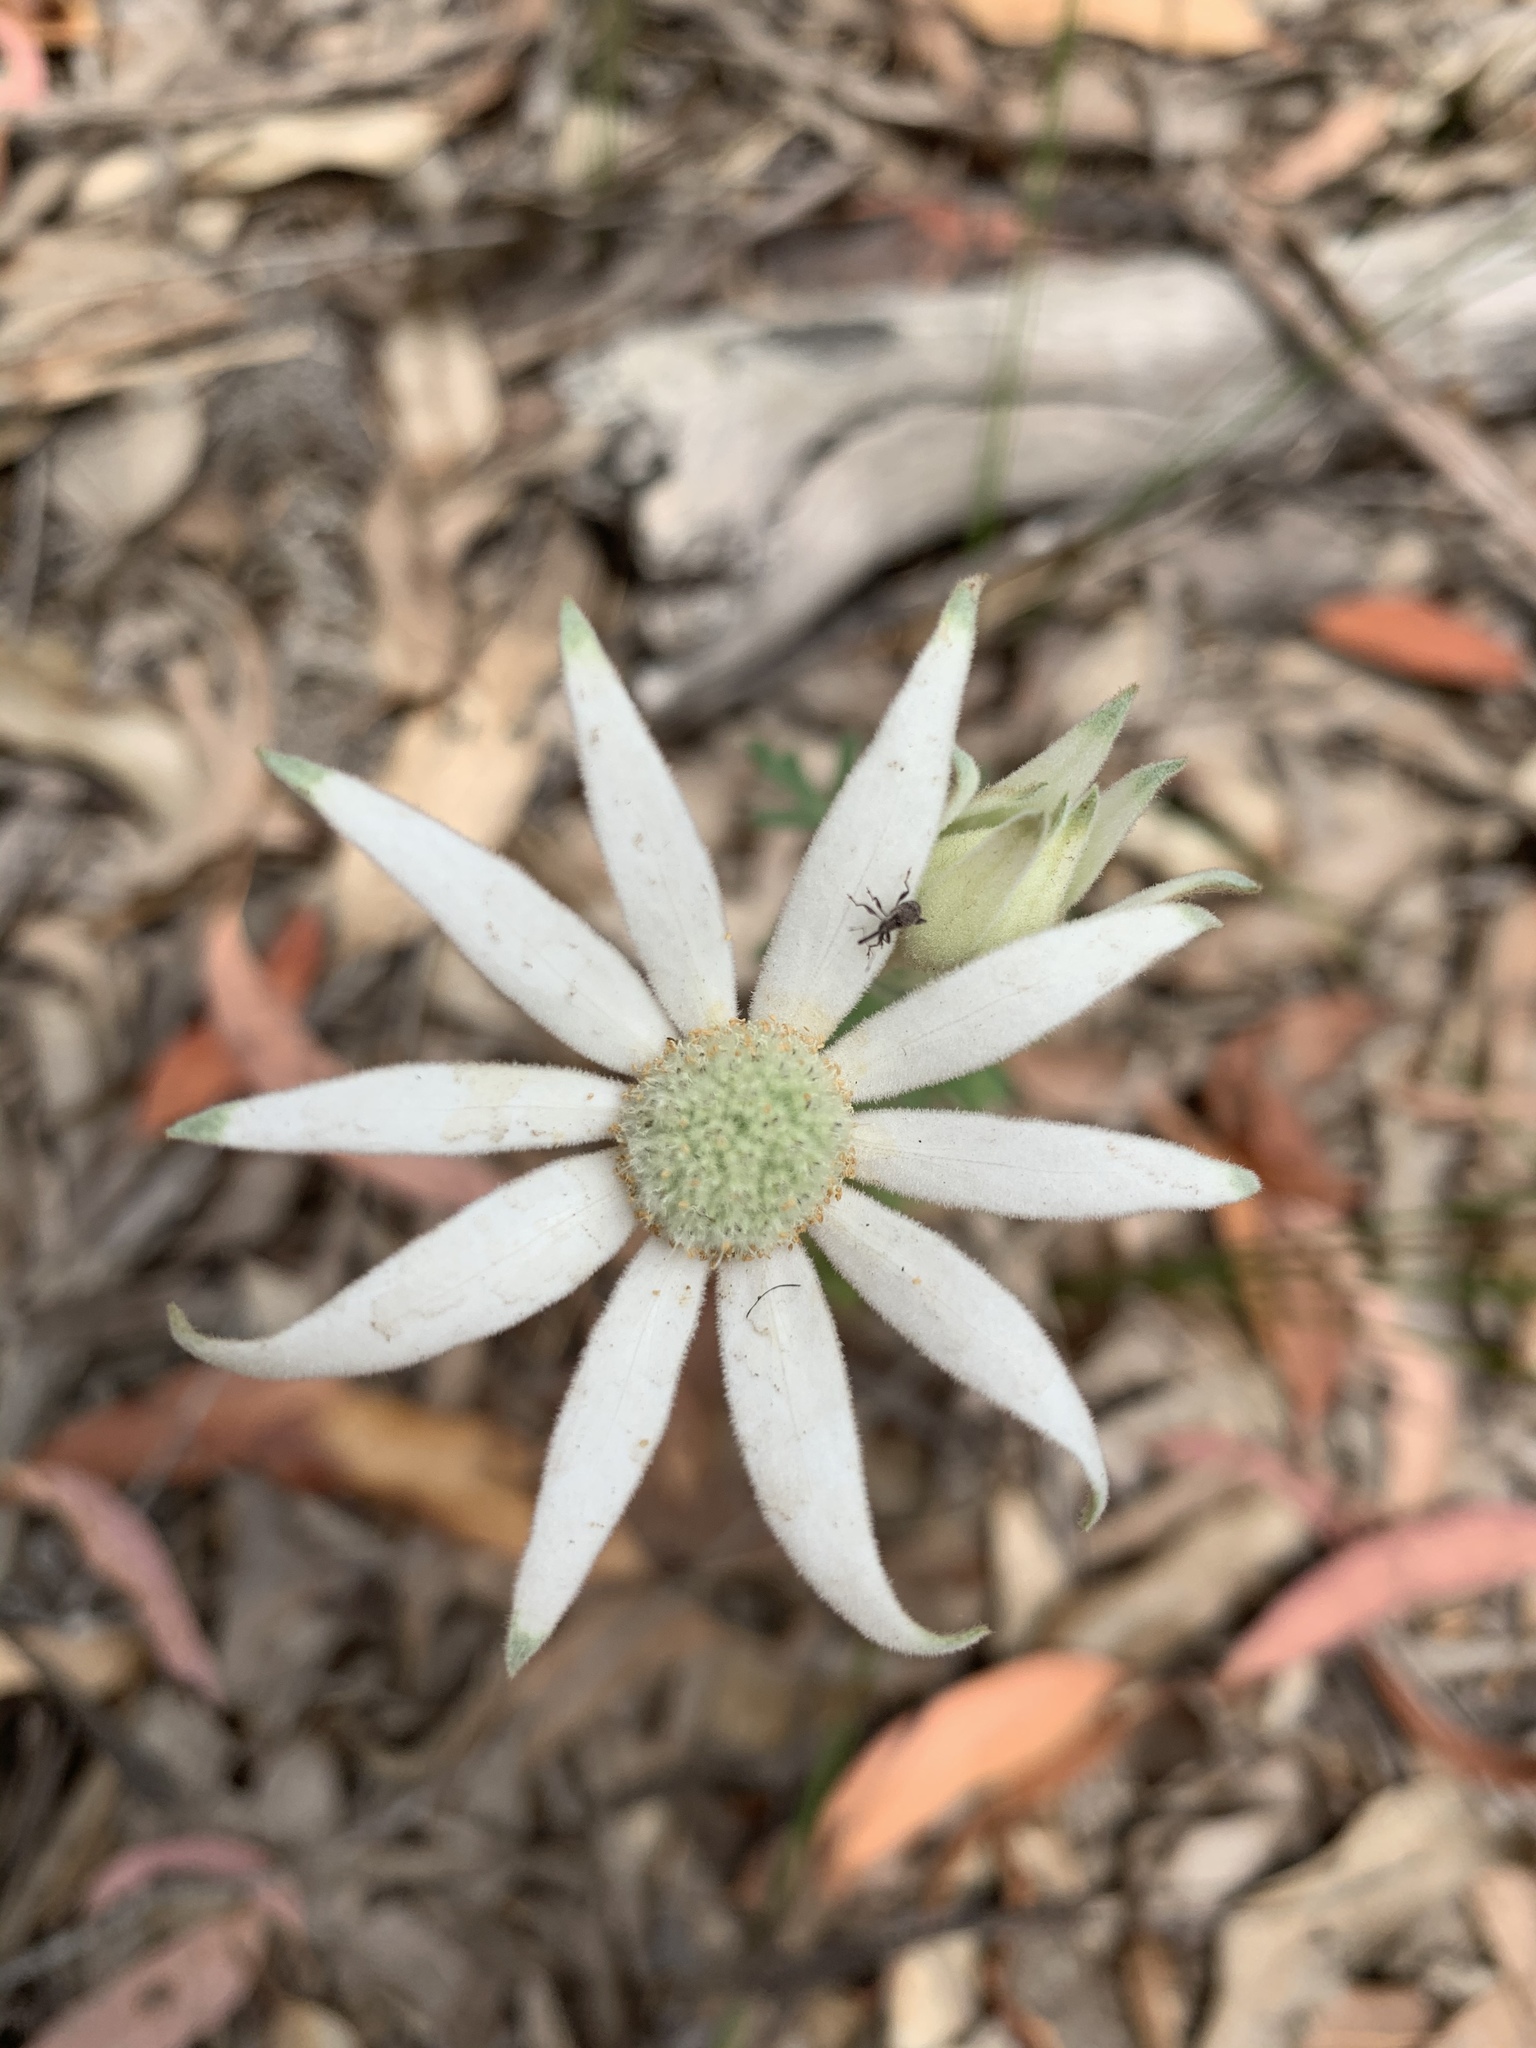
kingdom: Plantae
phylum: Tracheophyta
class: Magnoliopsida
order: Apiales
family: Apiaceae
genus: Actinotus
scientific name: Actinotus helianthi
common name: Flannel-flower
